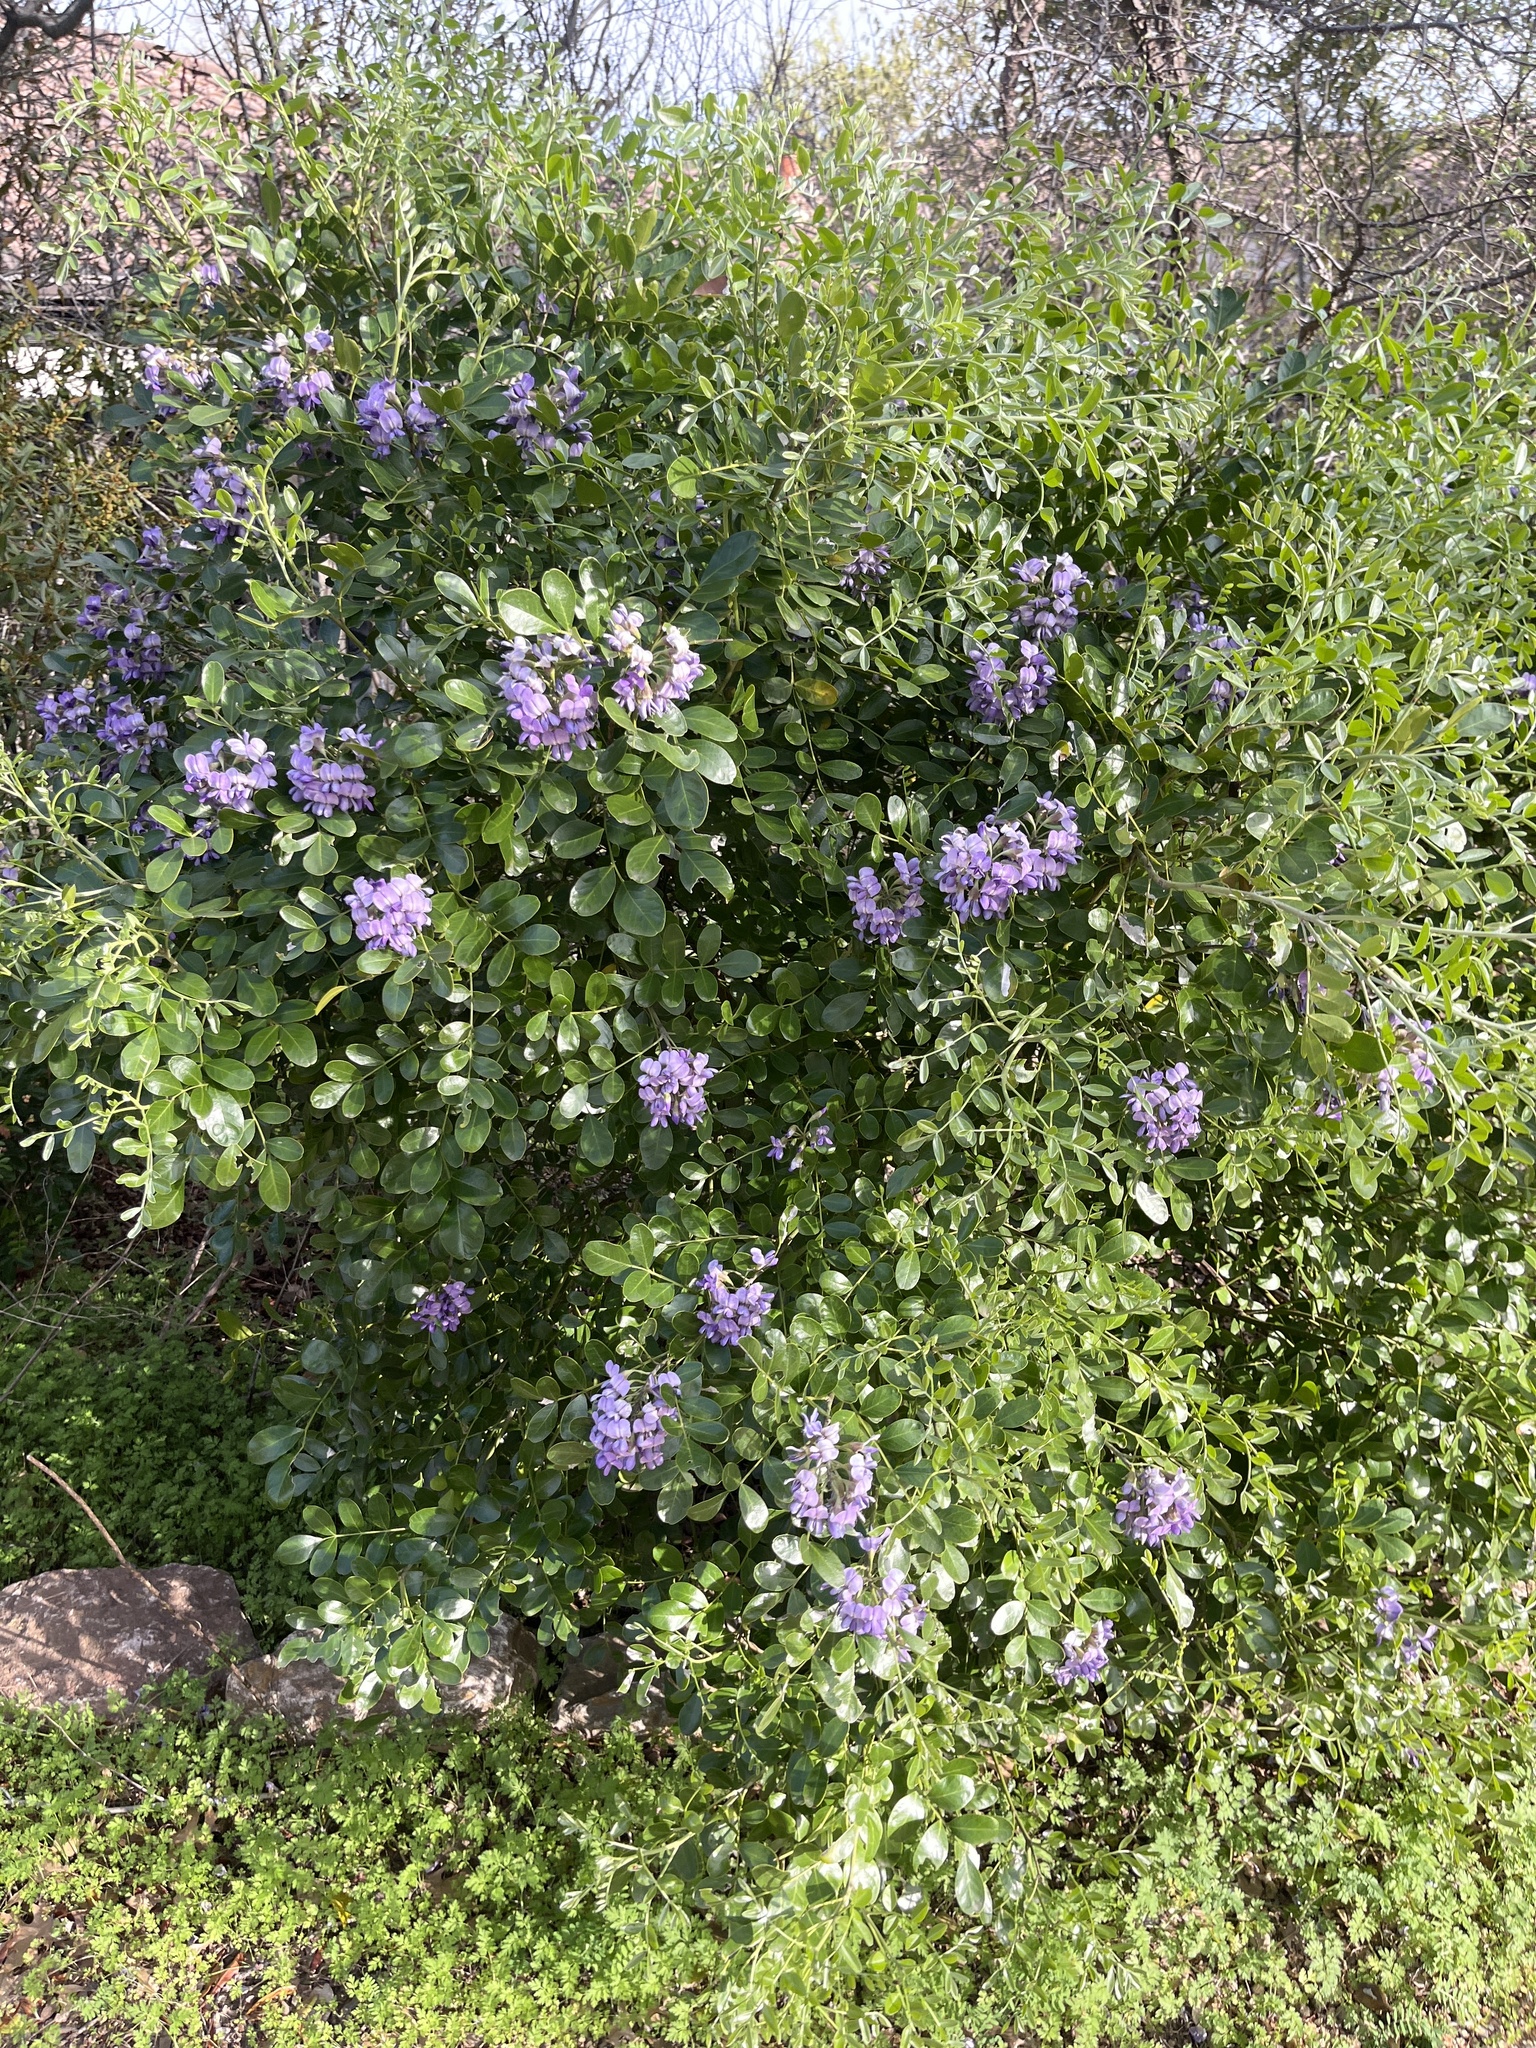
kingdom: Plantae
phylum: Tracheophyta
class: Magnoliopsida
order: Fabales
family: Fabaceae
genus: Dermatophyllum
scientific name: Dermatophyllum secundiflorum
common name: Texas-mountain-laurel
